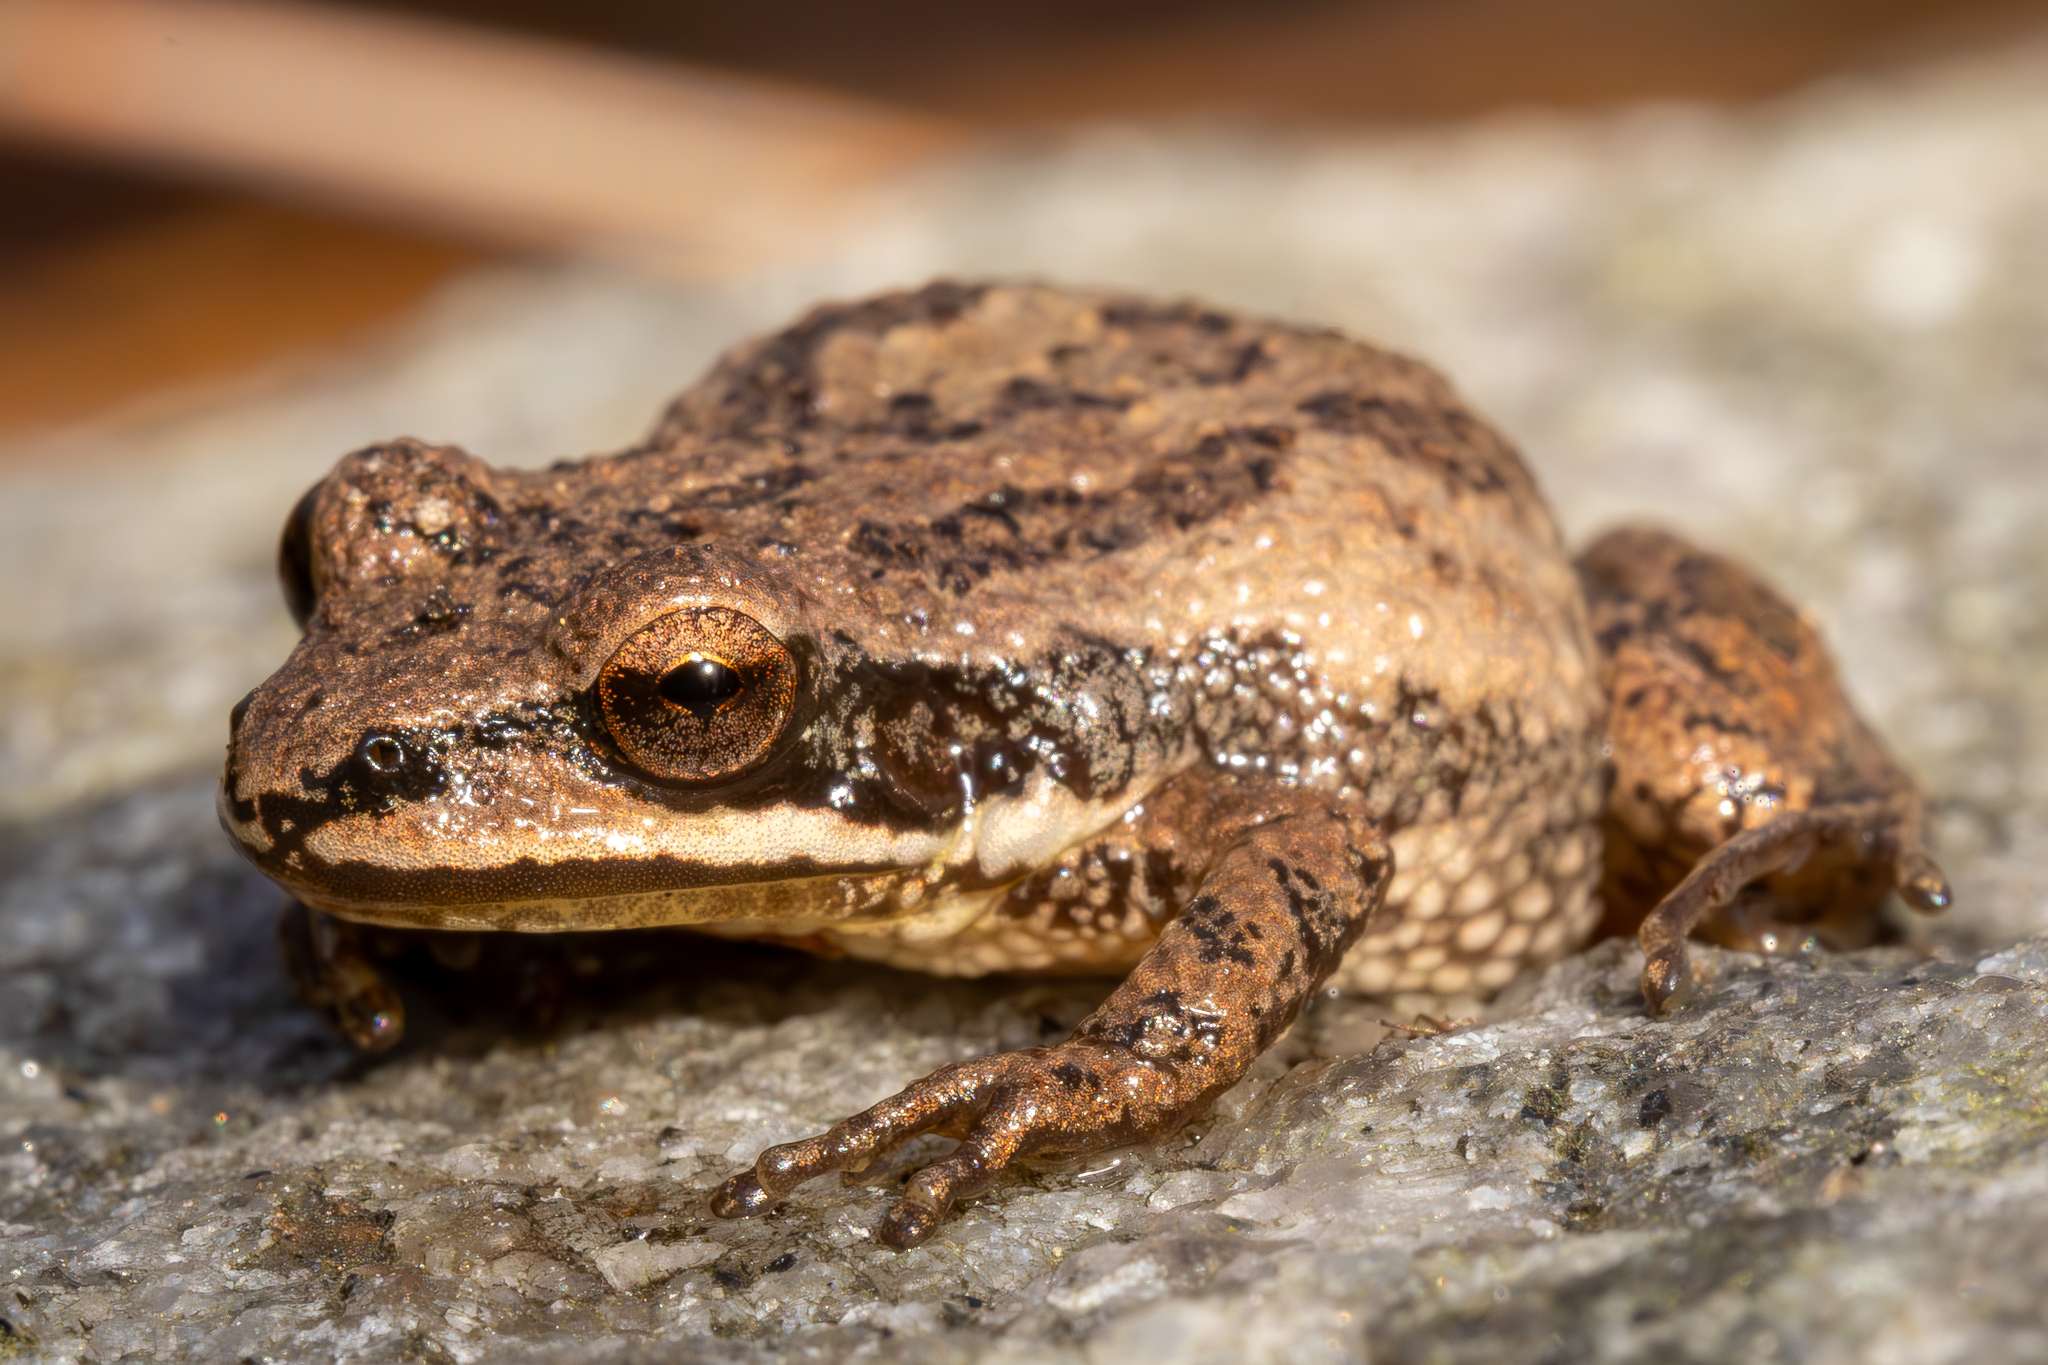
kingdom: Animalia
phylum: Chordata
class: Amphibia
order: Anura
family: Hylidae
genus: Pseudacris
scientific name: Pseudacris feriarum
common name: Upland chorus frog
